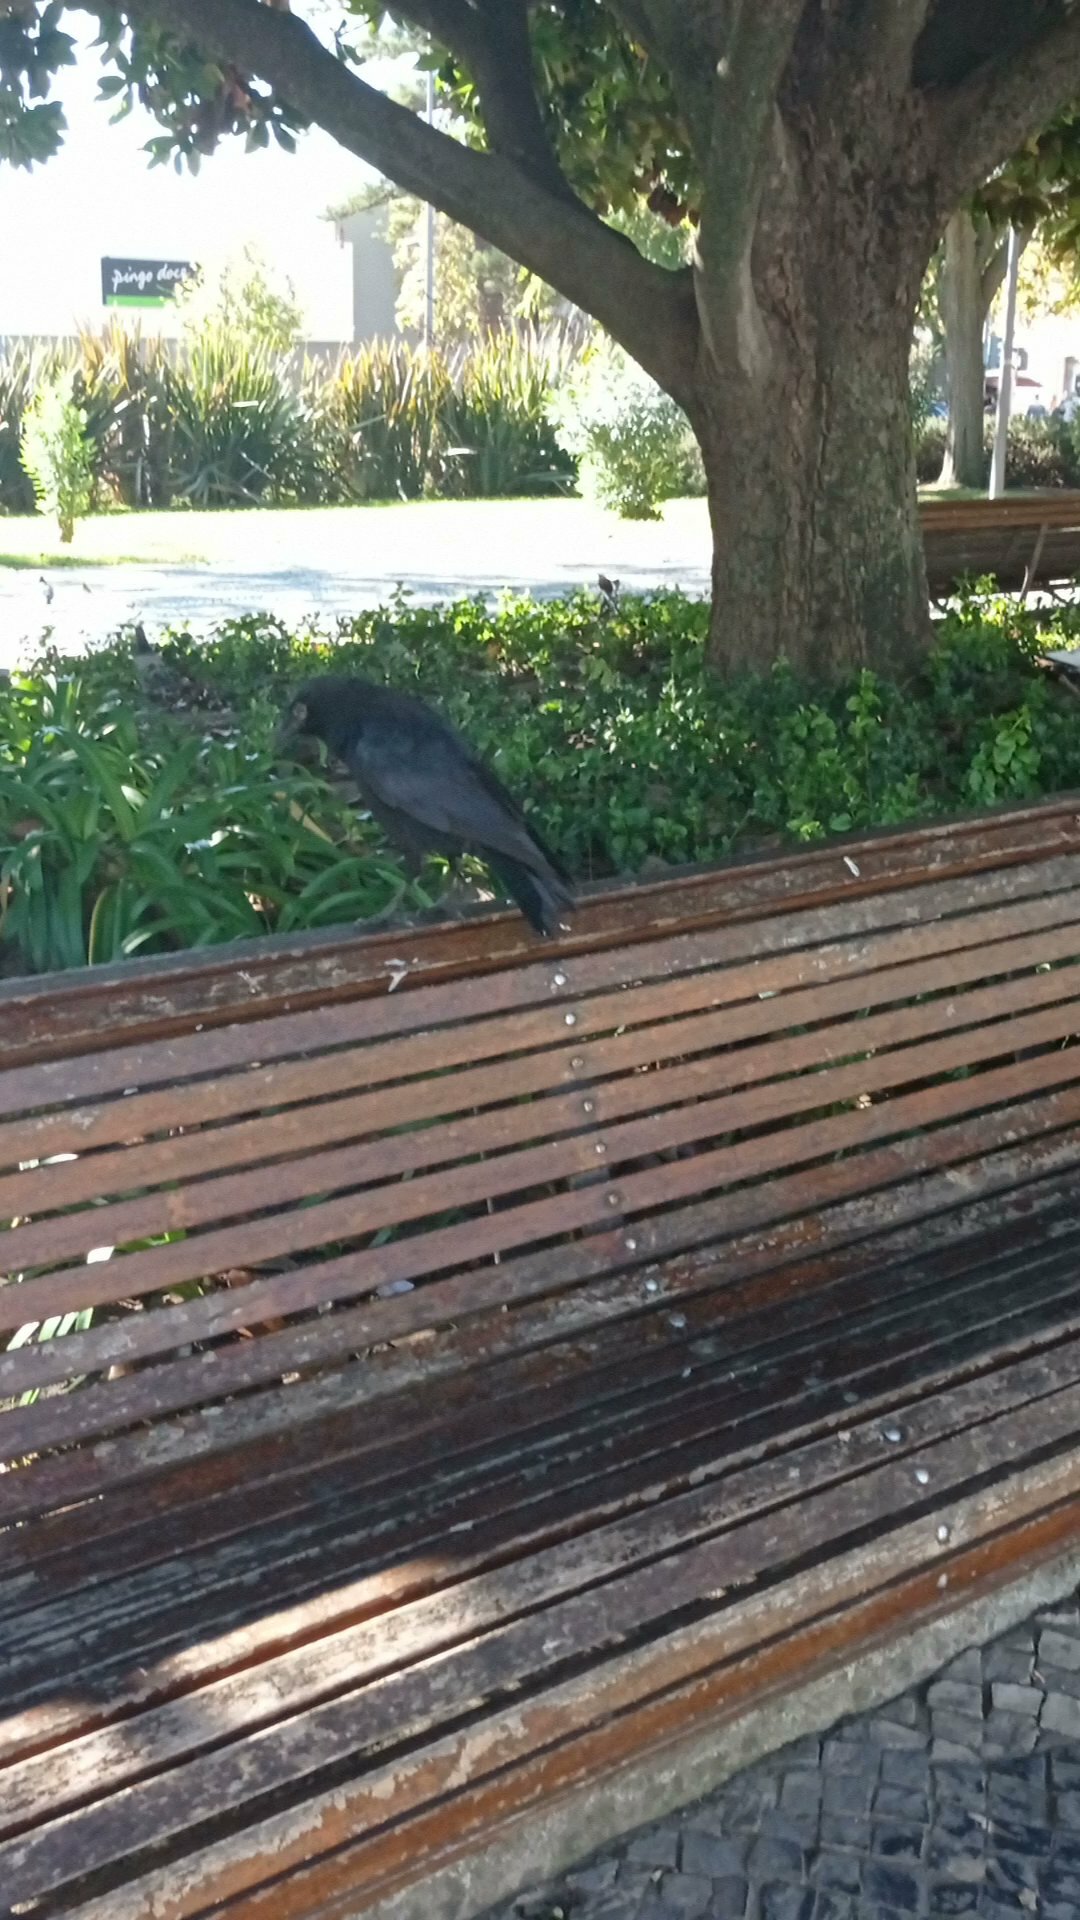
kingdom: Animalia
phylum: Chordata
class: Aves
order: Passeriformes
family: Corvidae
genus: Corvus
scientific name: Corvus corone
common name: Carrion crow
